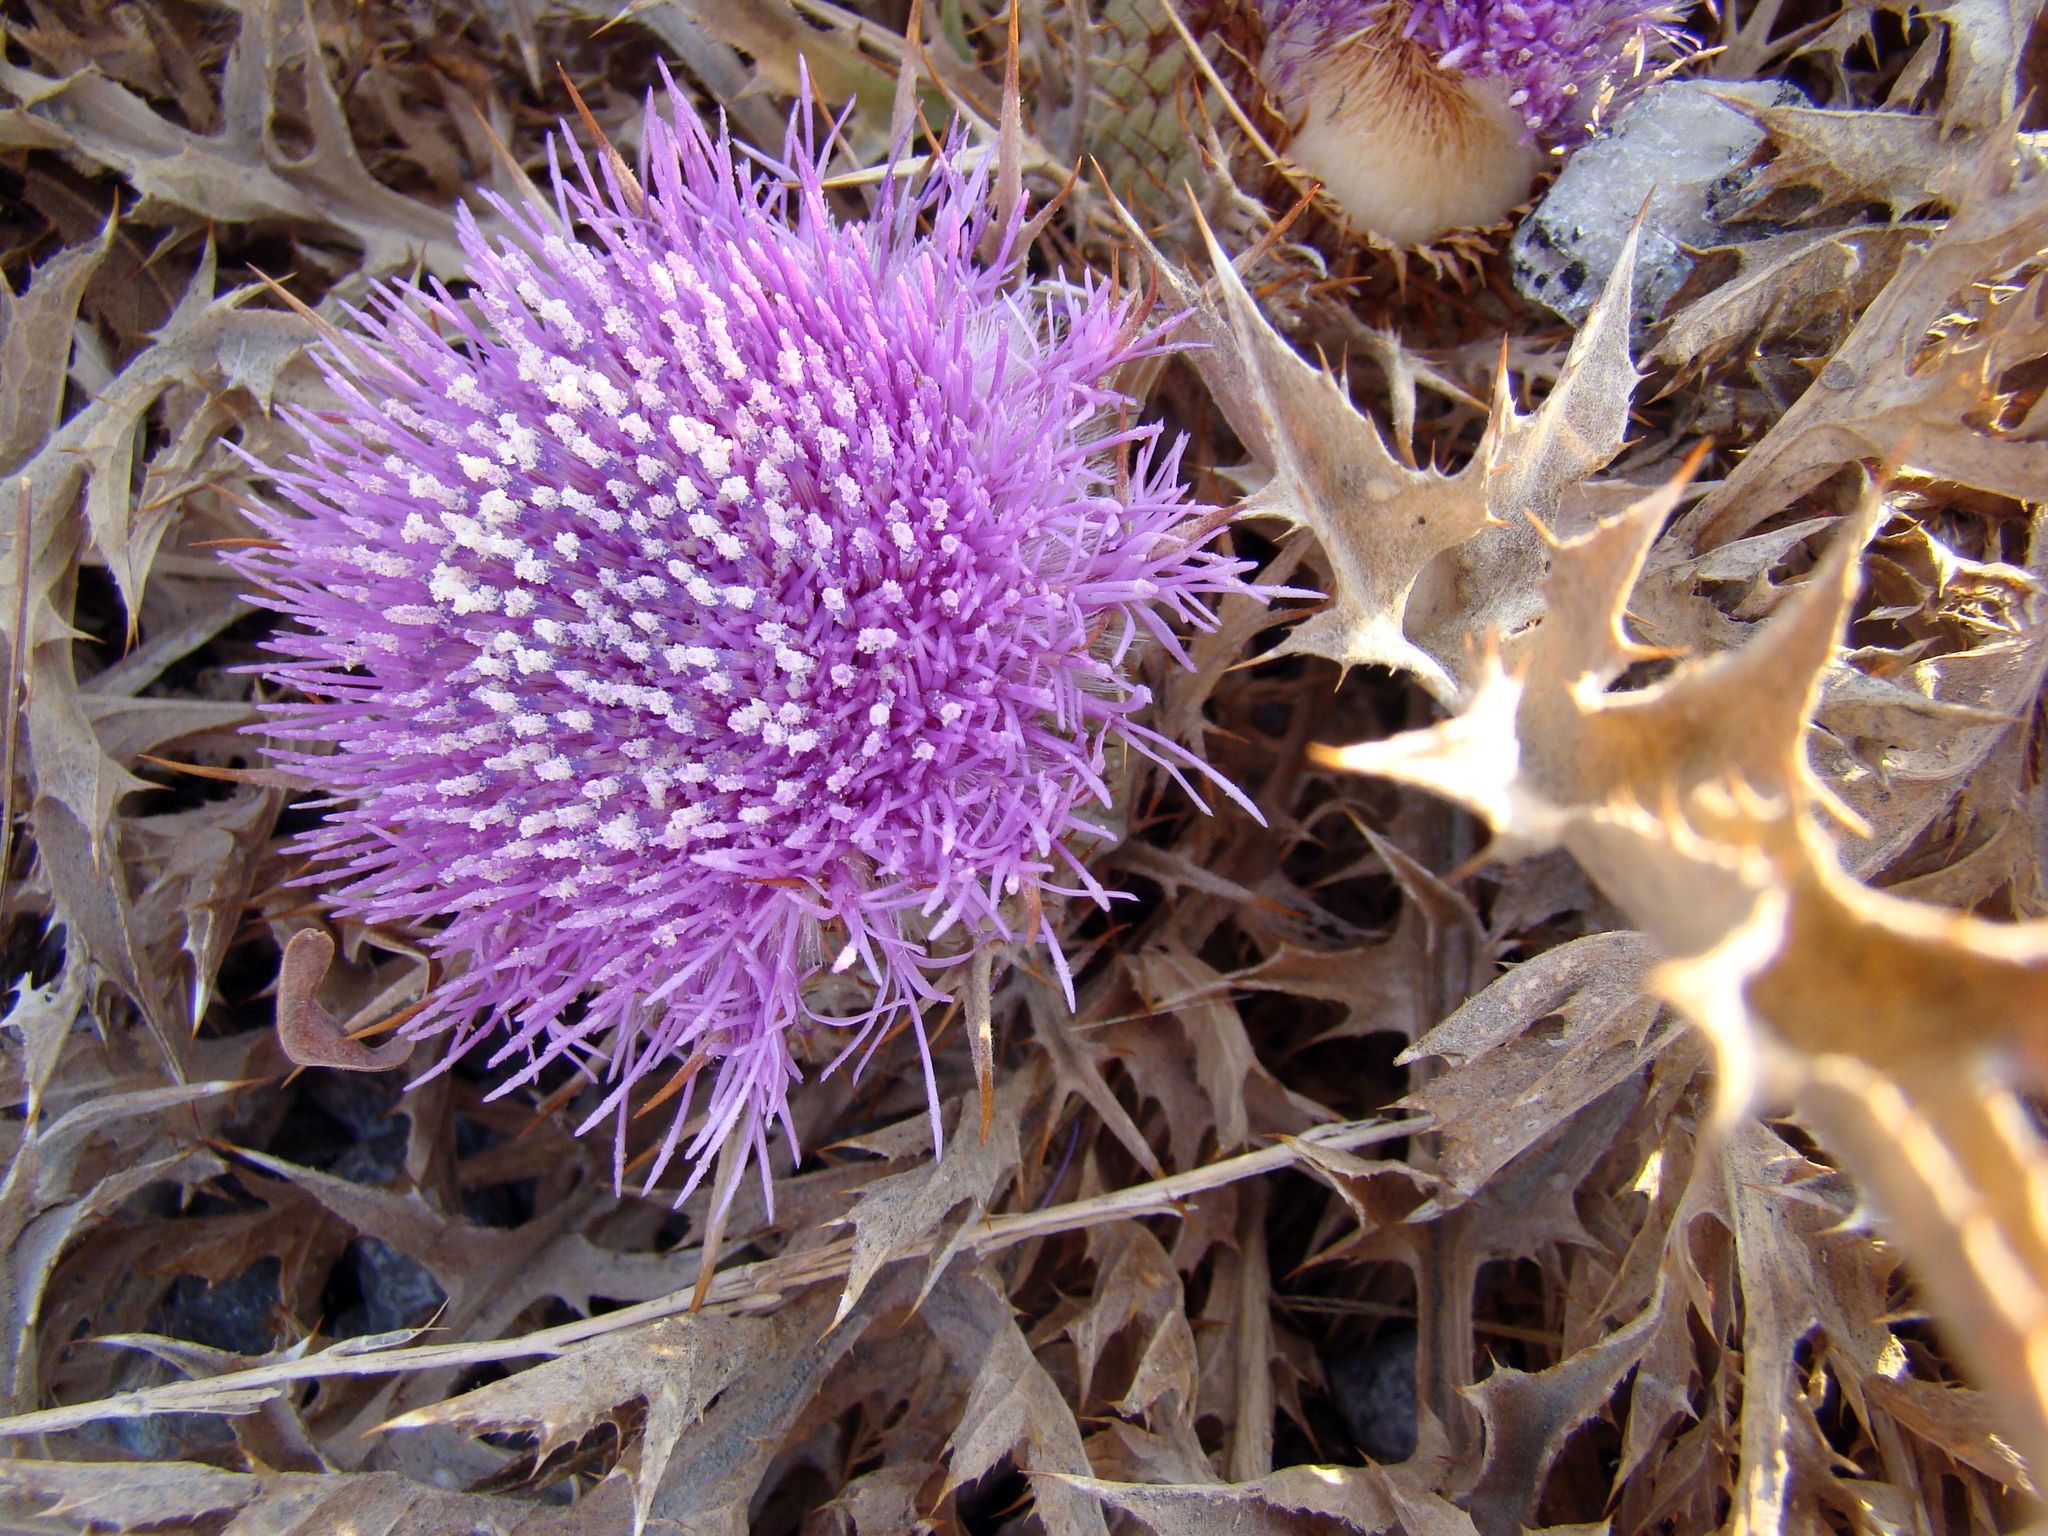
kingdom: Plantae
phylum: Tracheophyta
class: Magnoliopsida
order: Asterales
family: Asteraceae
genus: Chamaeleon
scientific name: Chamaeleon gummifer
